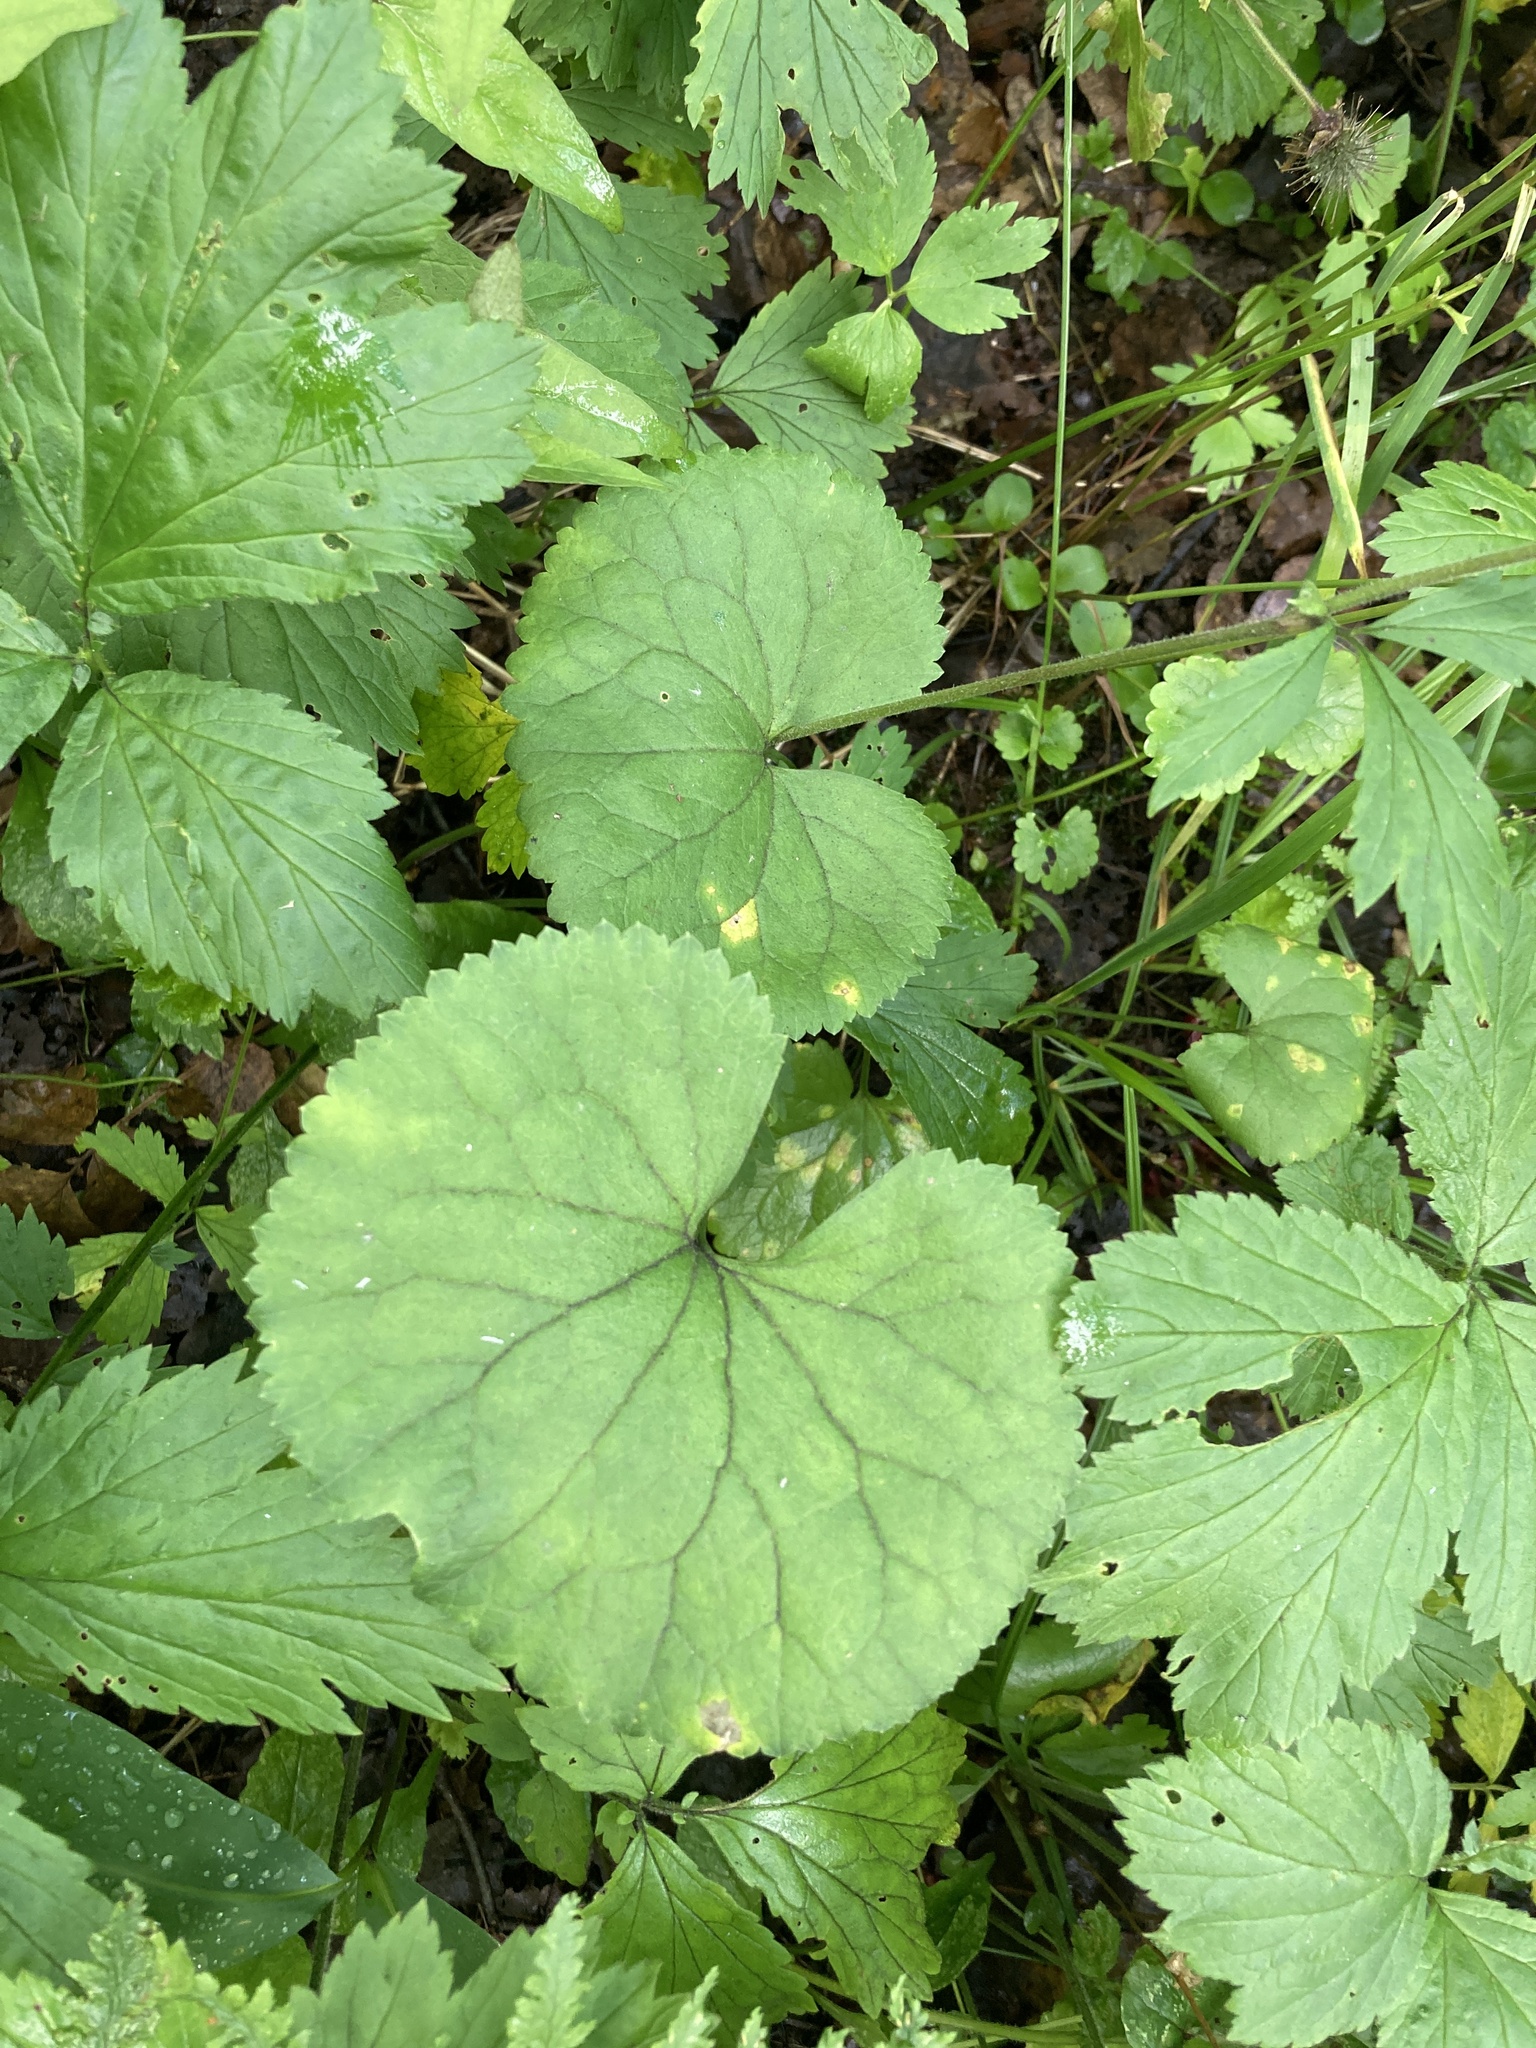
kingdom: Plantae
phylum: Tracheophyta
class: Magnoliopsida
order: Ranunculales
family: Ranunculaceae
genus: Ranunculus
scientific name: Ranunculus cassubicus
